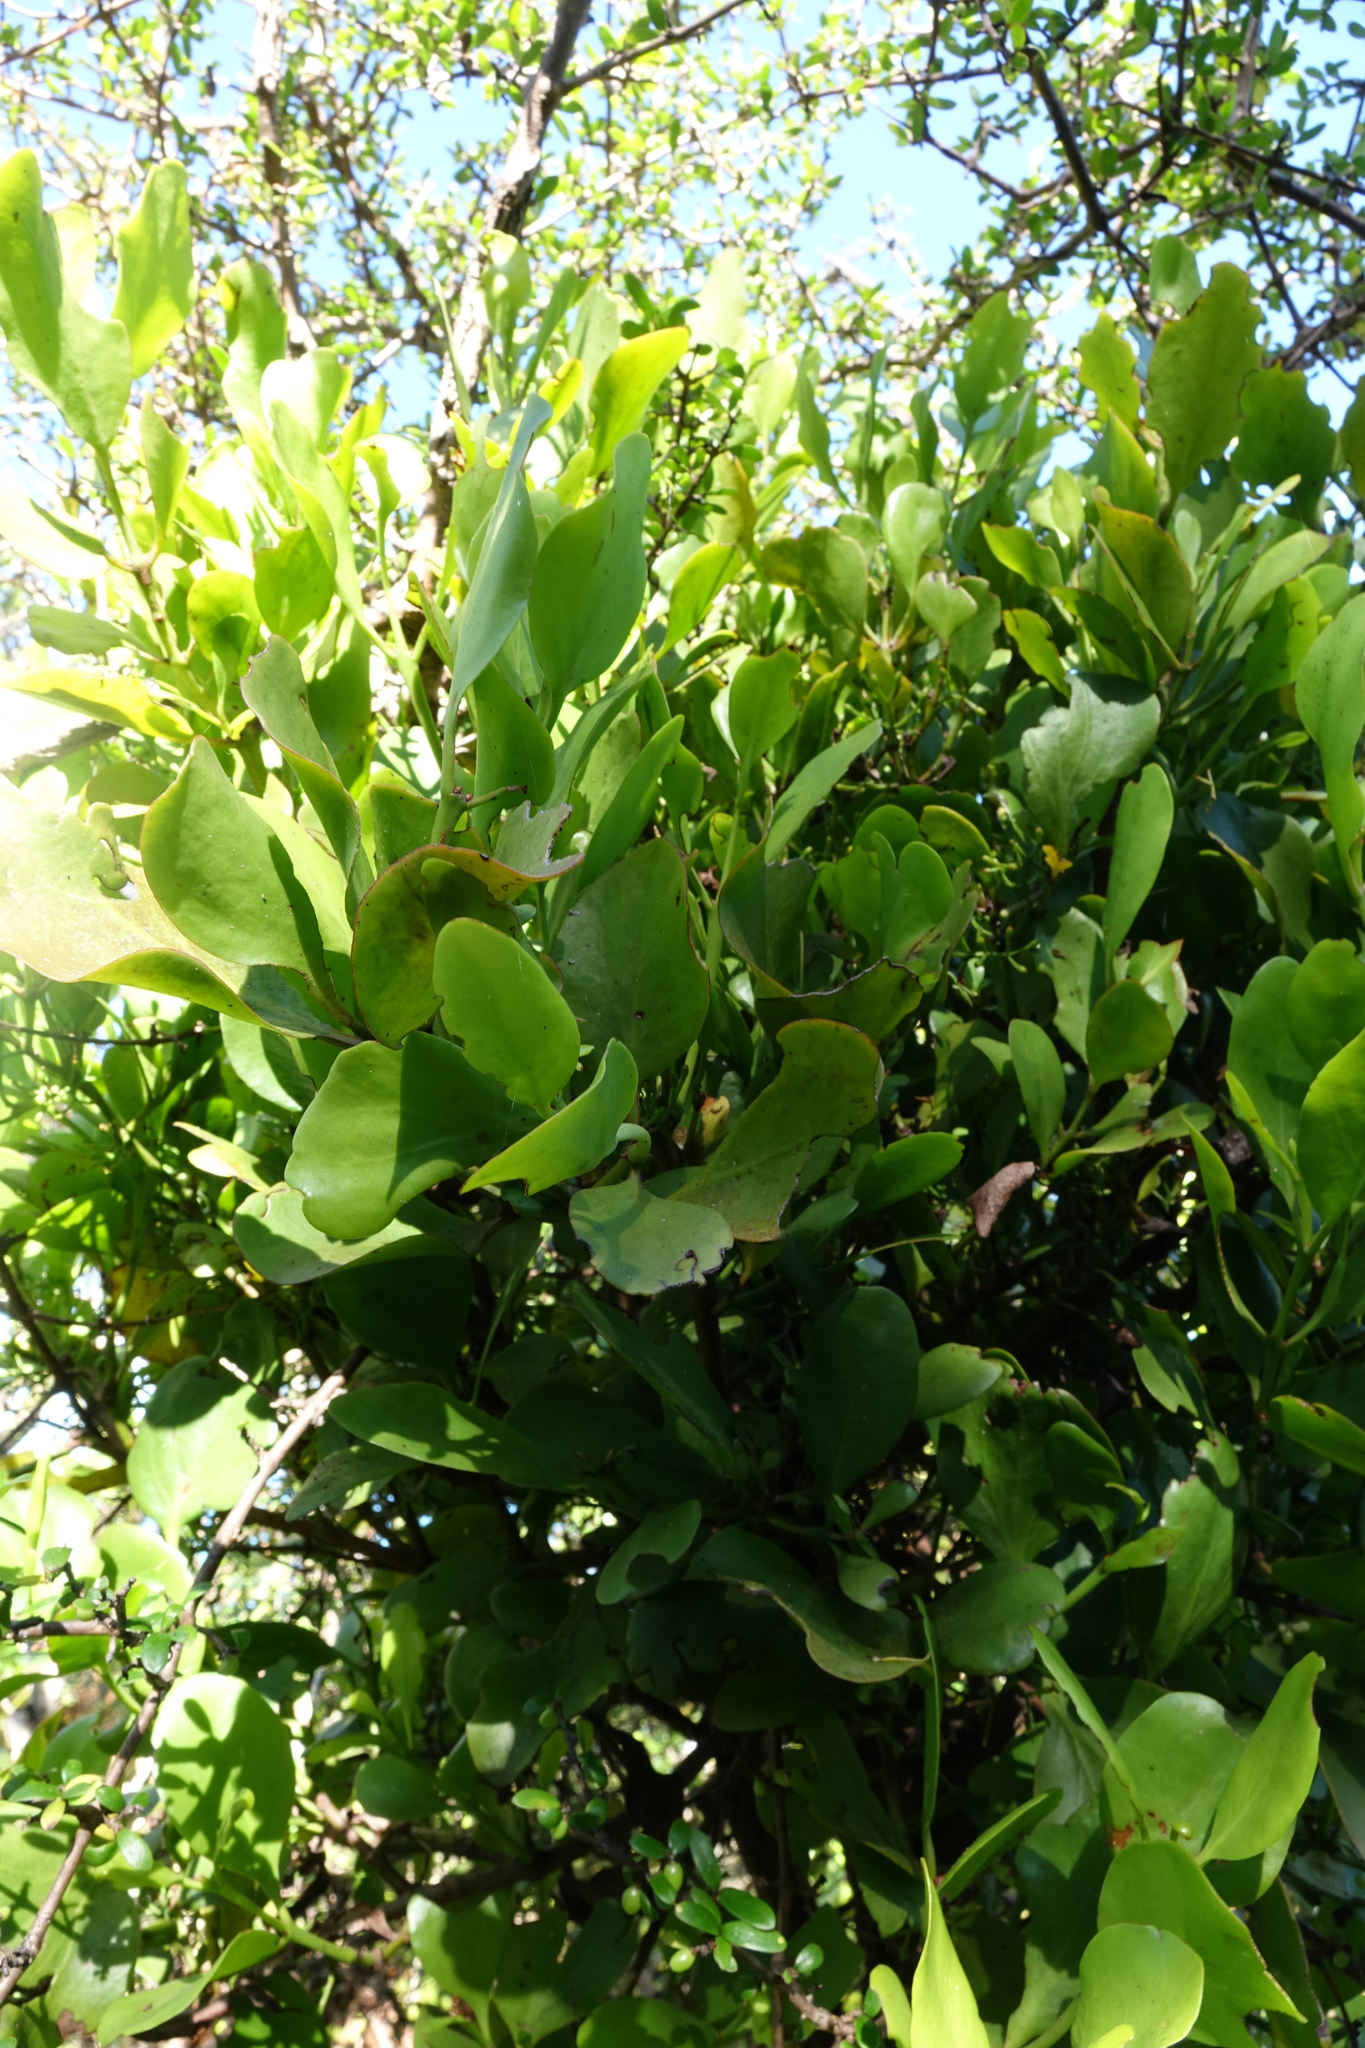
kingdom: Plantae
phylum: Tracheophyta
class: Magnoliopsida
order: Santalales
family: Loranthaceae
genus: Ileostylus
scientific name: Ileostylus micranthus
